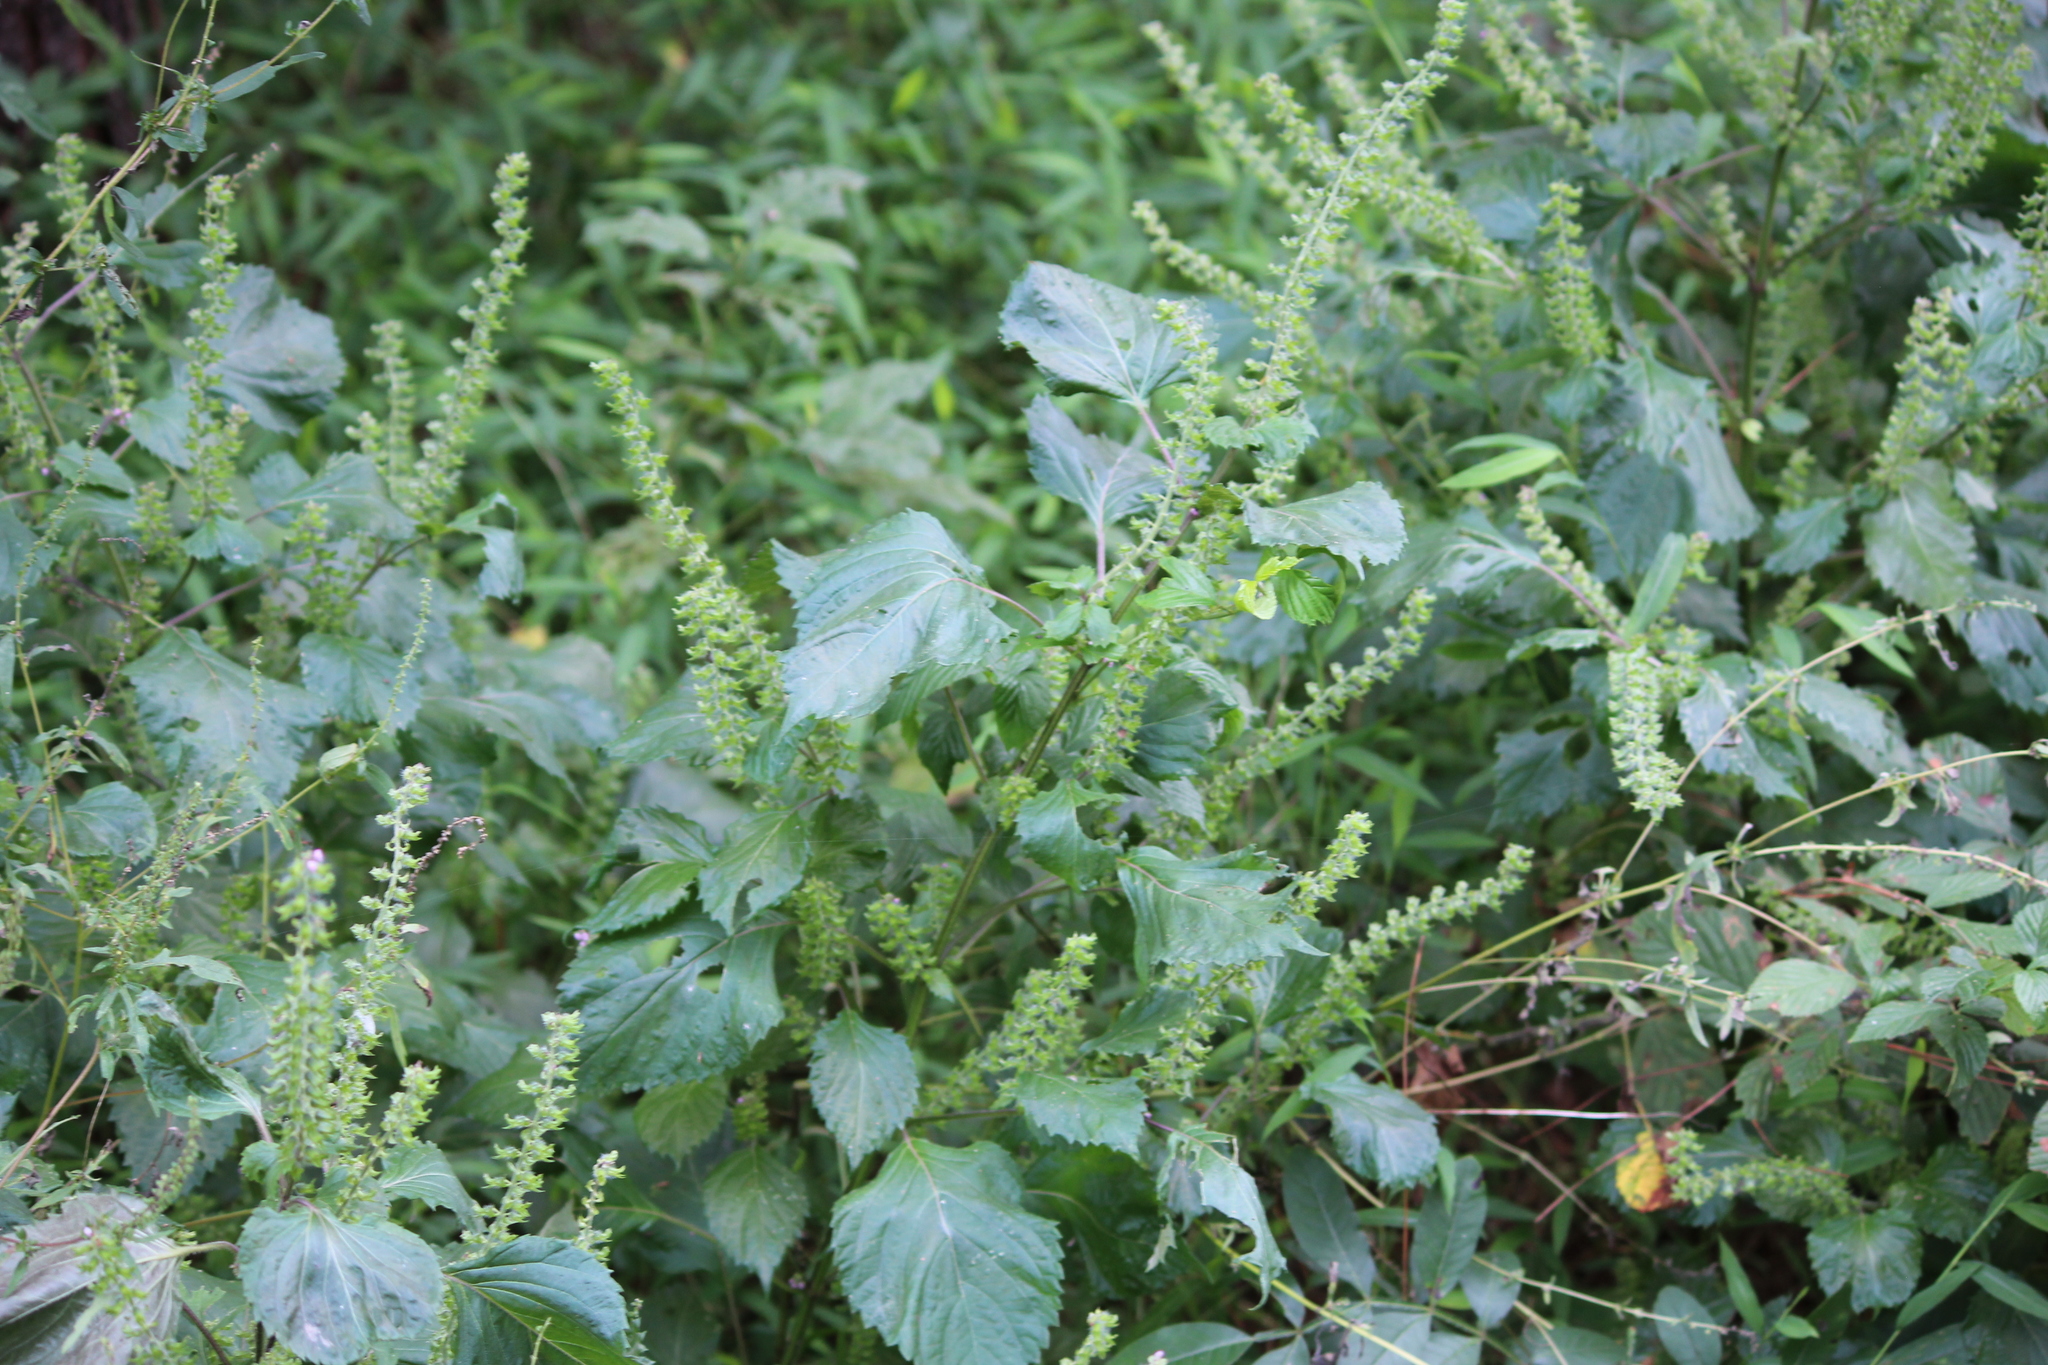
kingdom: Plantae
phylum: Tracheophyta
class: Magnoliopsida
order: Lamiales
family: Lamiaceae
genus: Perilla
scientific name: Perilla frutescens
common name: Perilla
